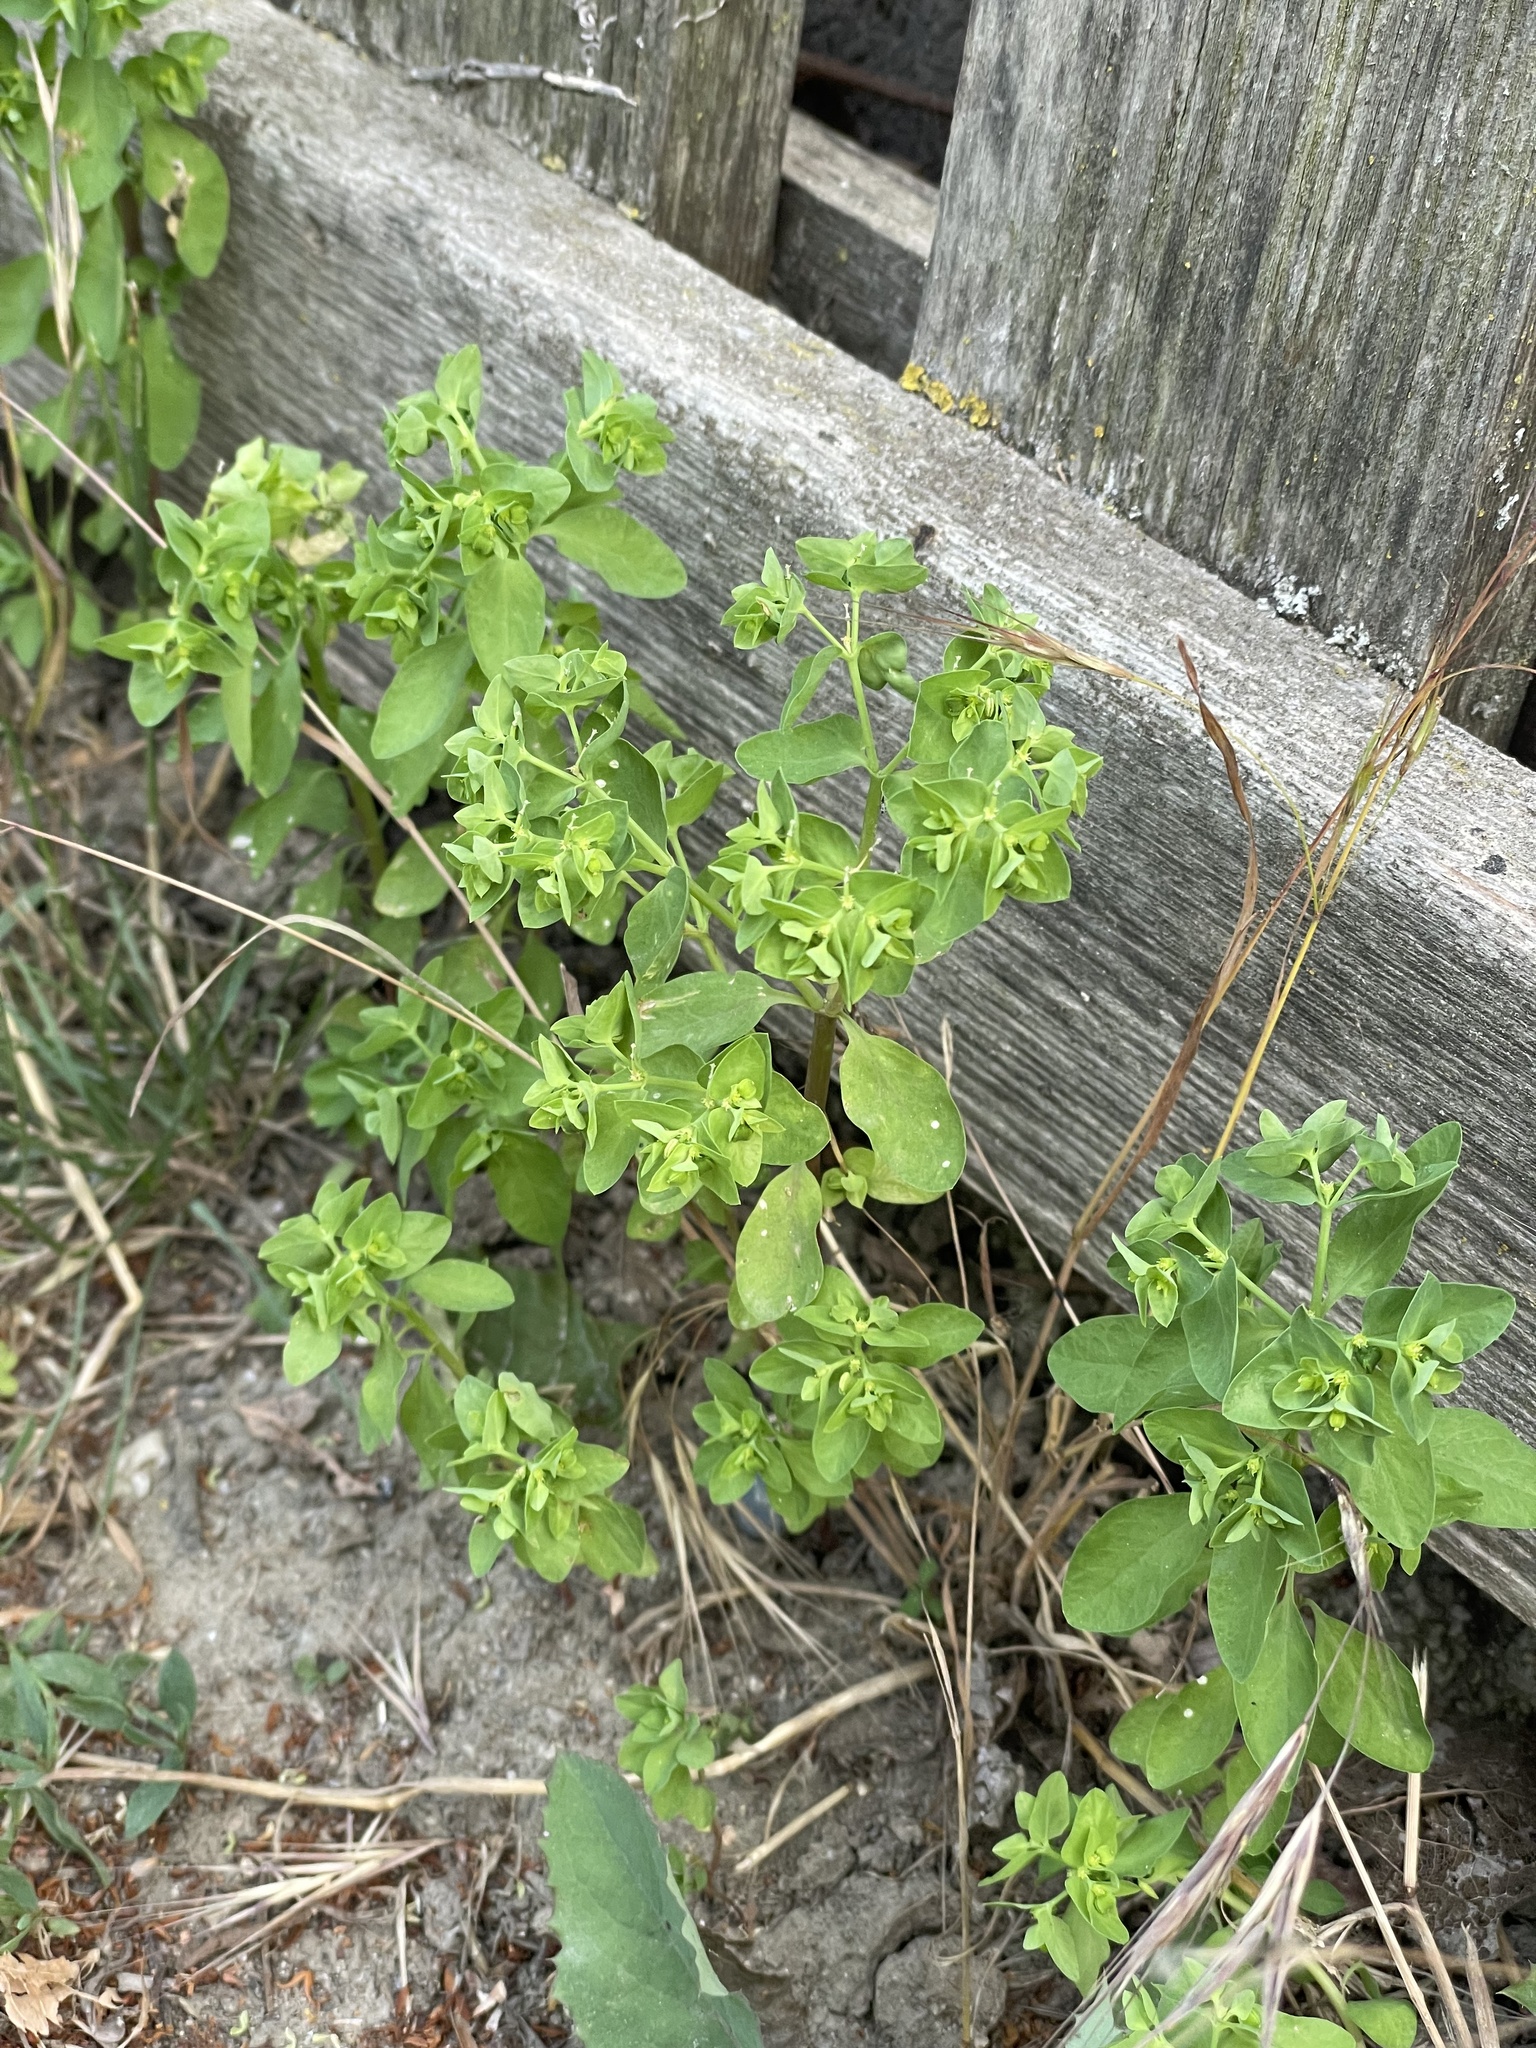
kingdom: Plantae
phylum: Tracheophyta
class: Magnoliopsida
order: Malpighiales
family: Euphorbiaceae
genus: Euphorbia
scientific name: Euphorbia peplus
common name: Petty spurge
